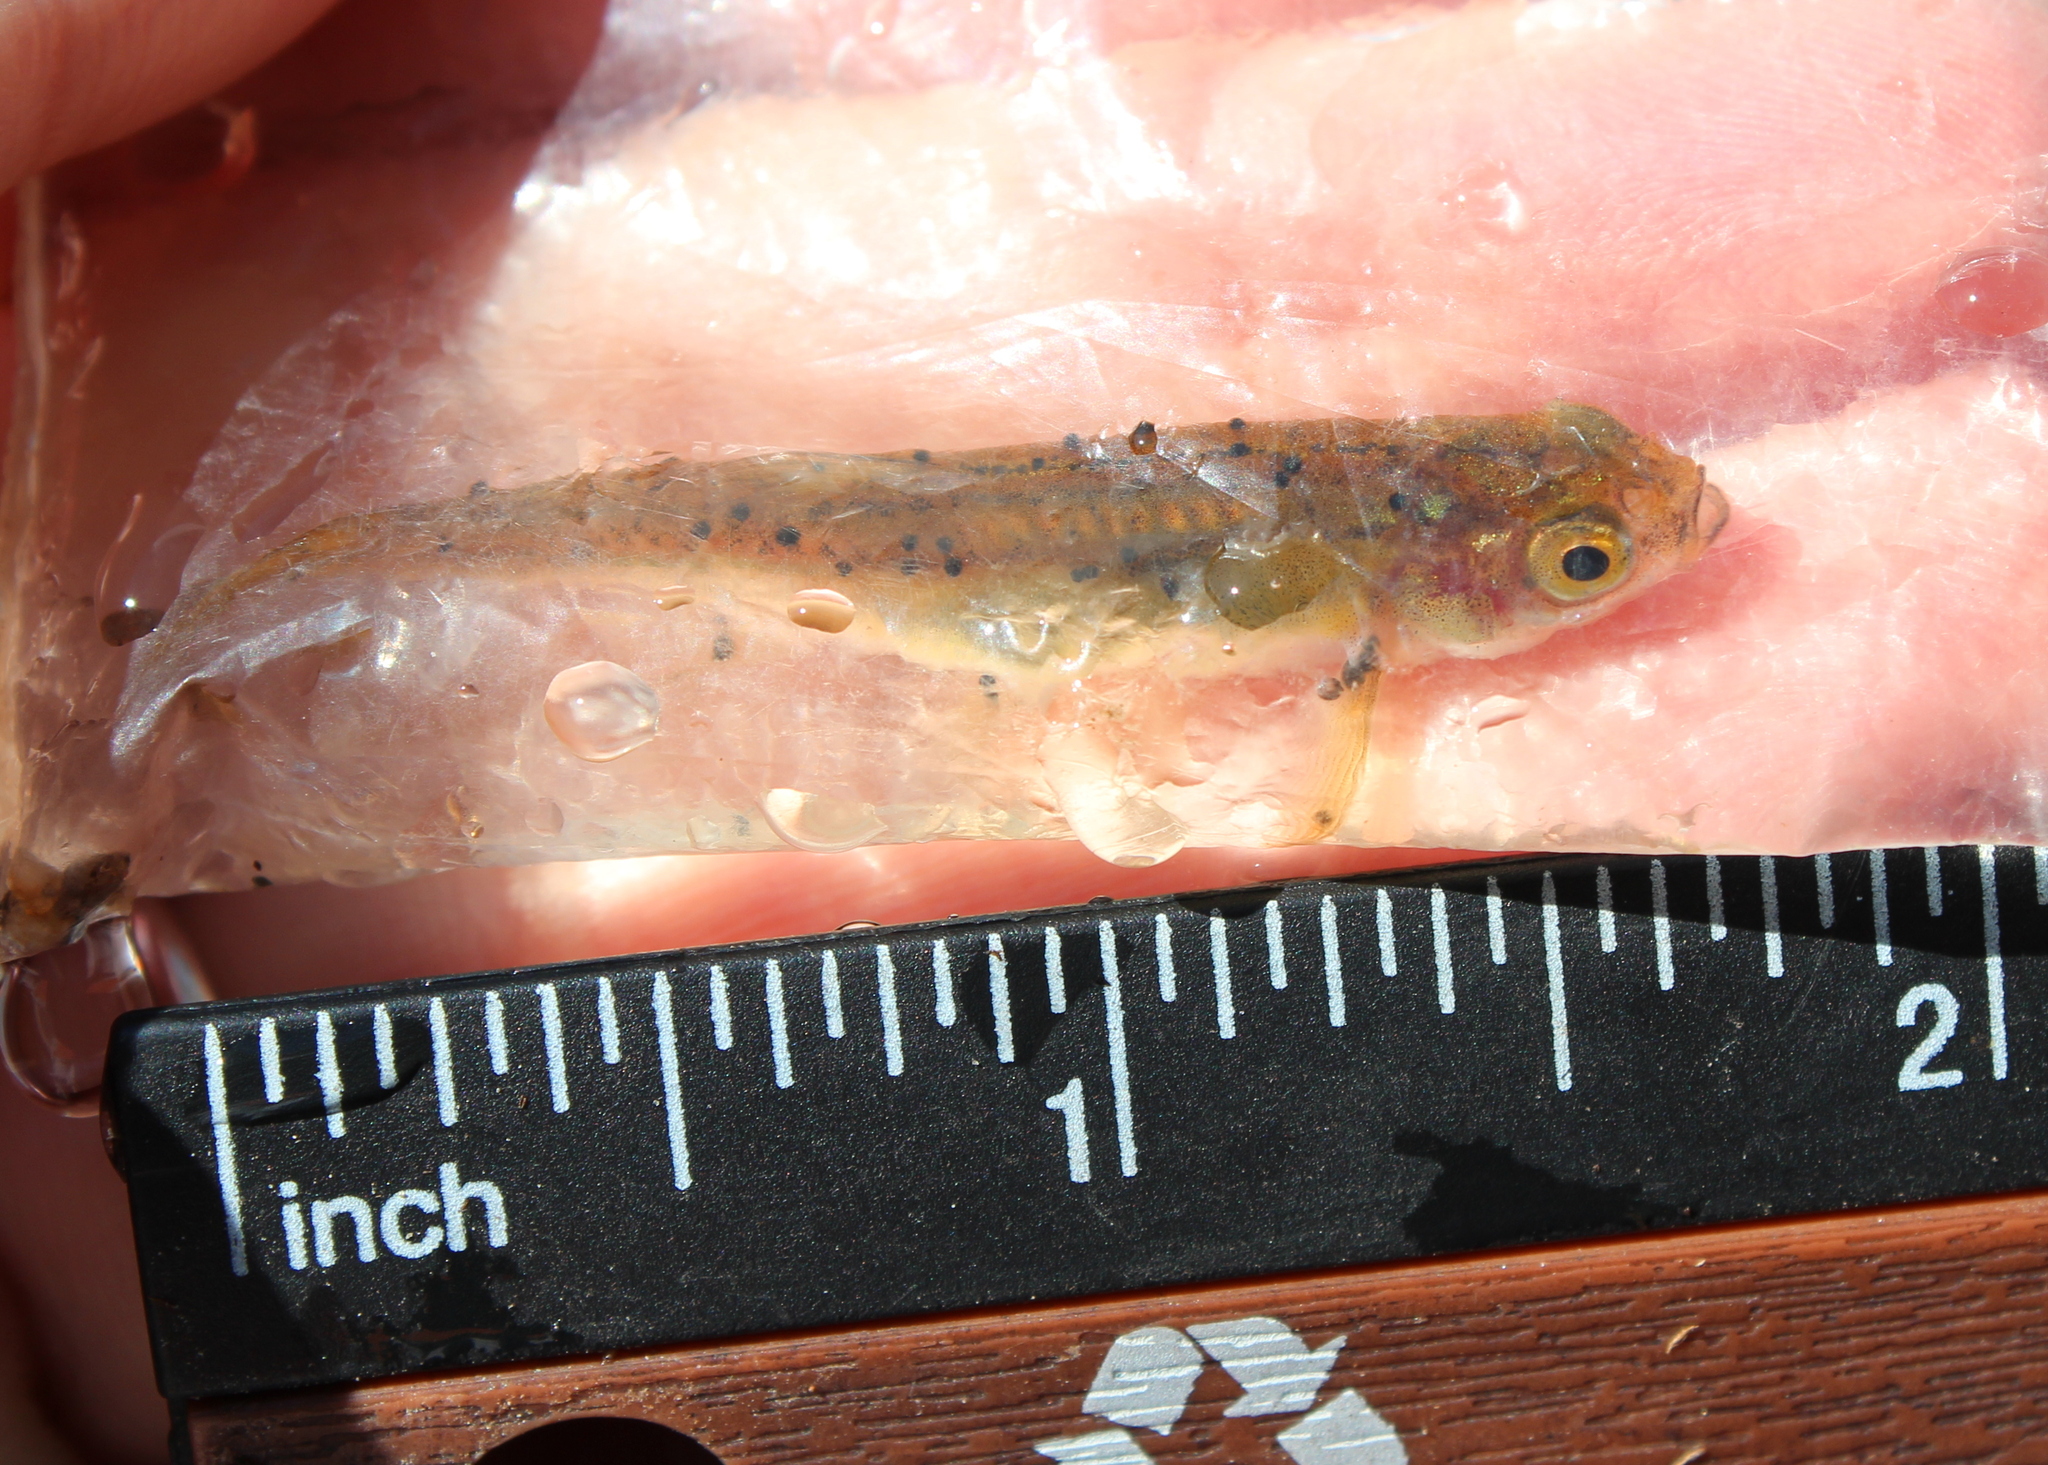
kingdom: Animalia
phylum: Chordata
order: Cypriniformes
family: Cyprinidae
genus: Chrosomus
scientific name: Chrosomus eos
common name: Northern redbelly dace
